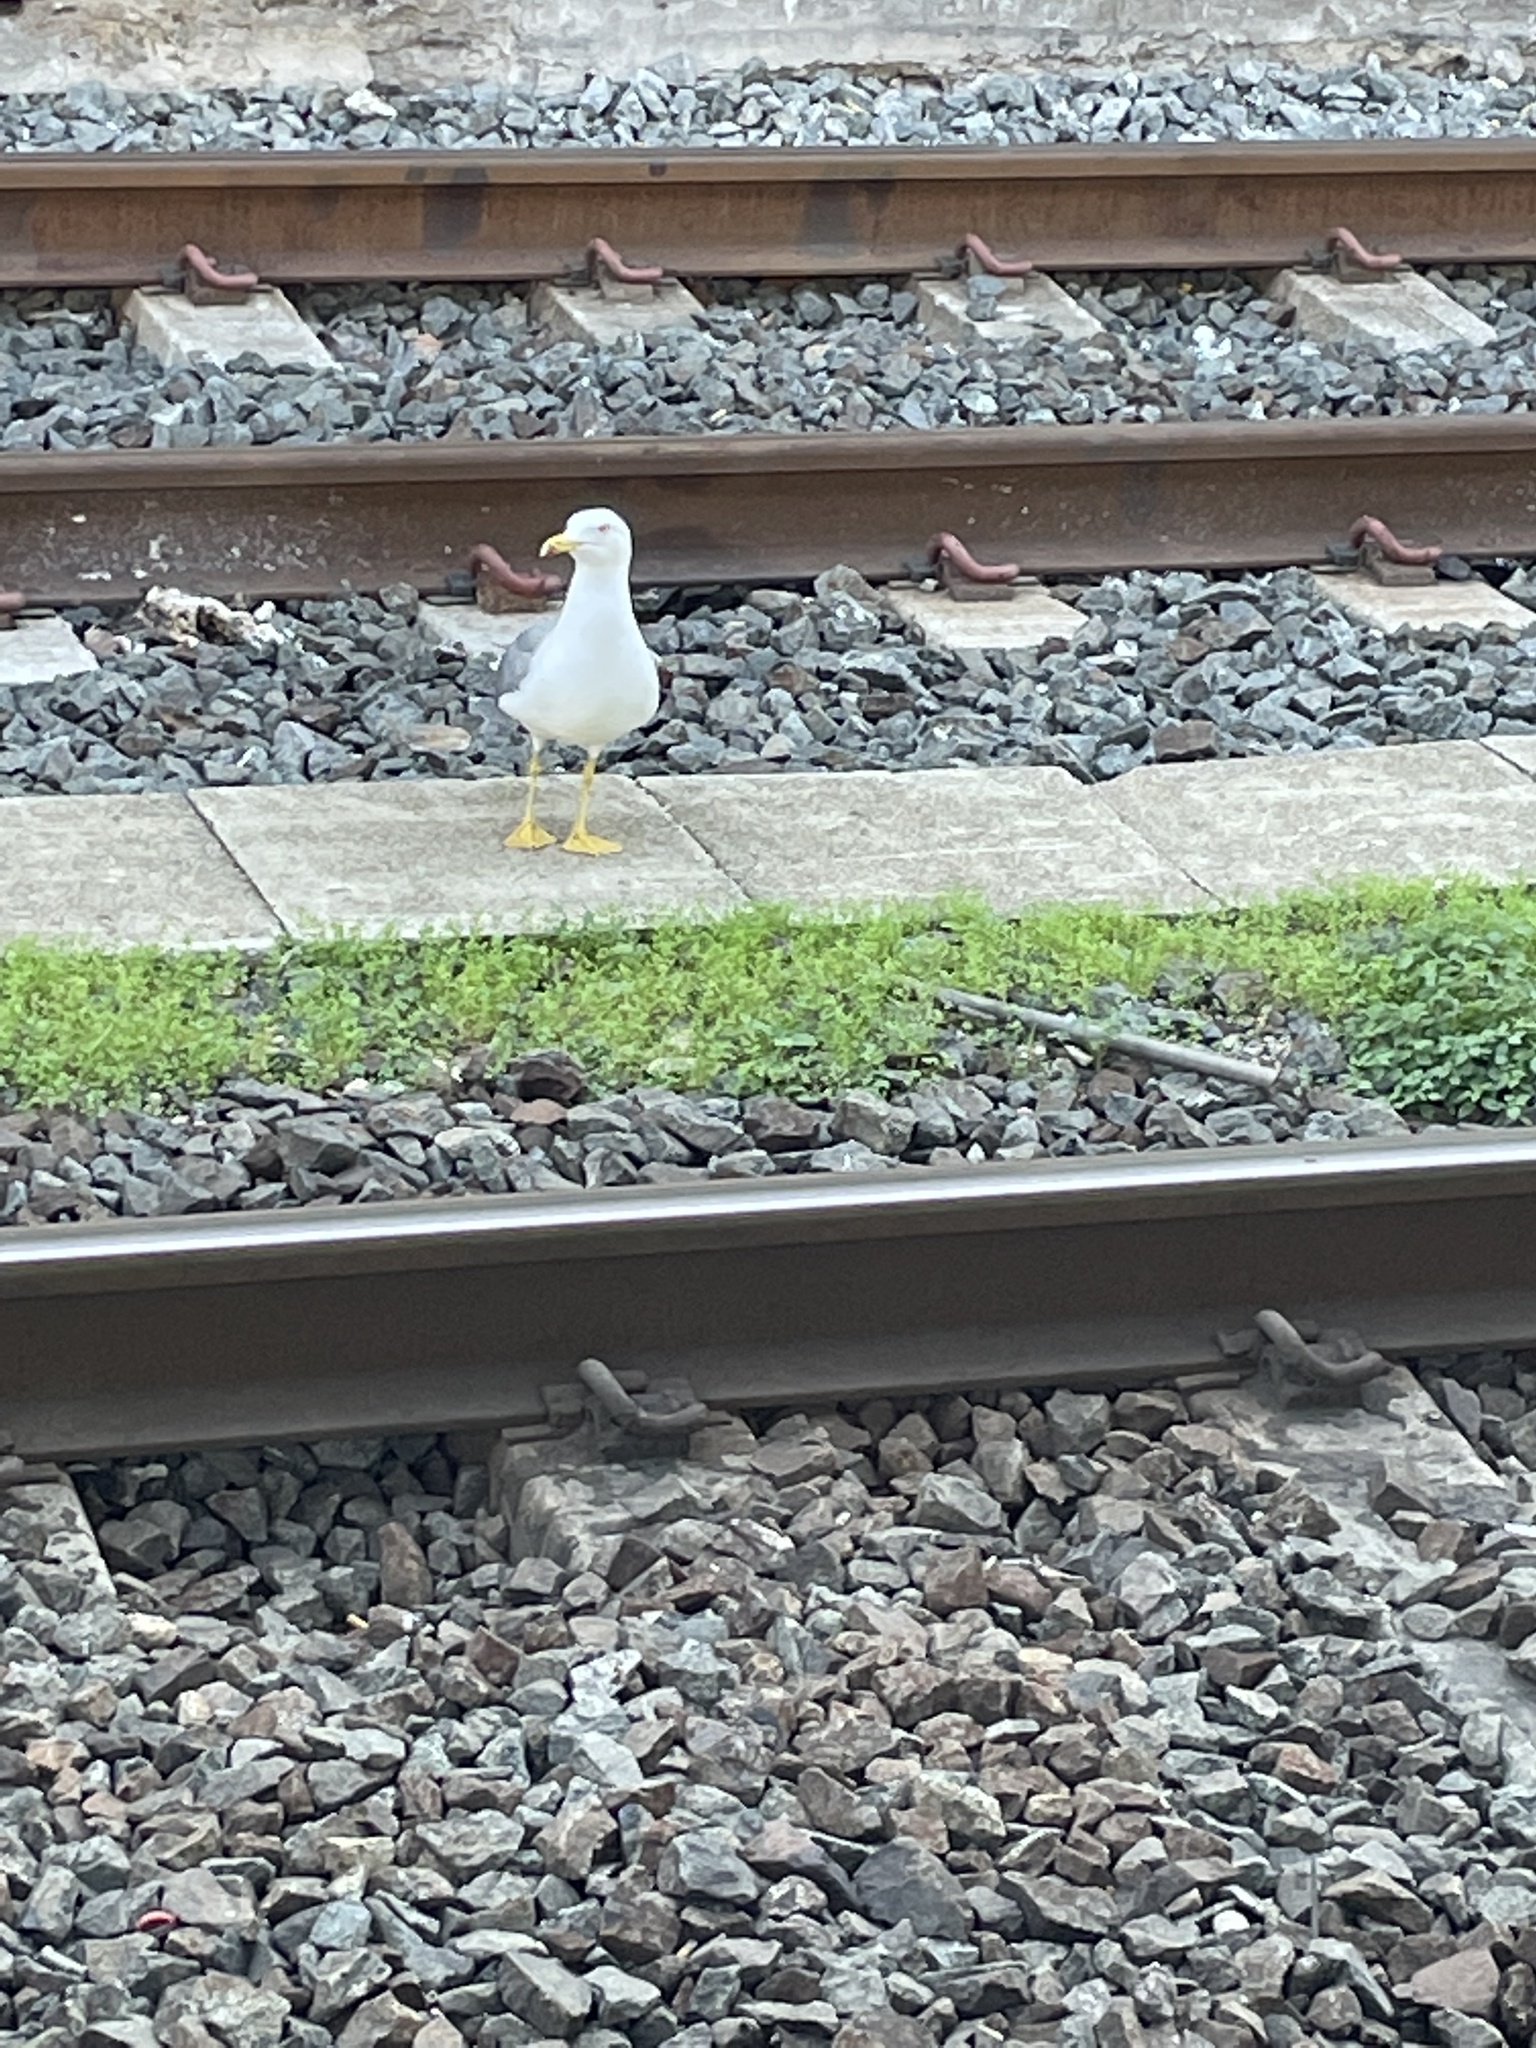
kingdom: Animalia
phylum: Chordata
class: Aves
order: Charadriiformes
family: Laridae
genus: Larus
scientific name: Larus michahellis
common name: Yellow-legged gull
